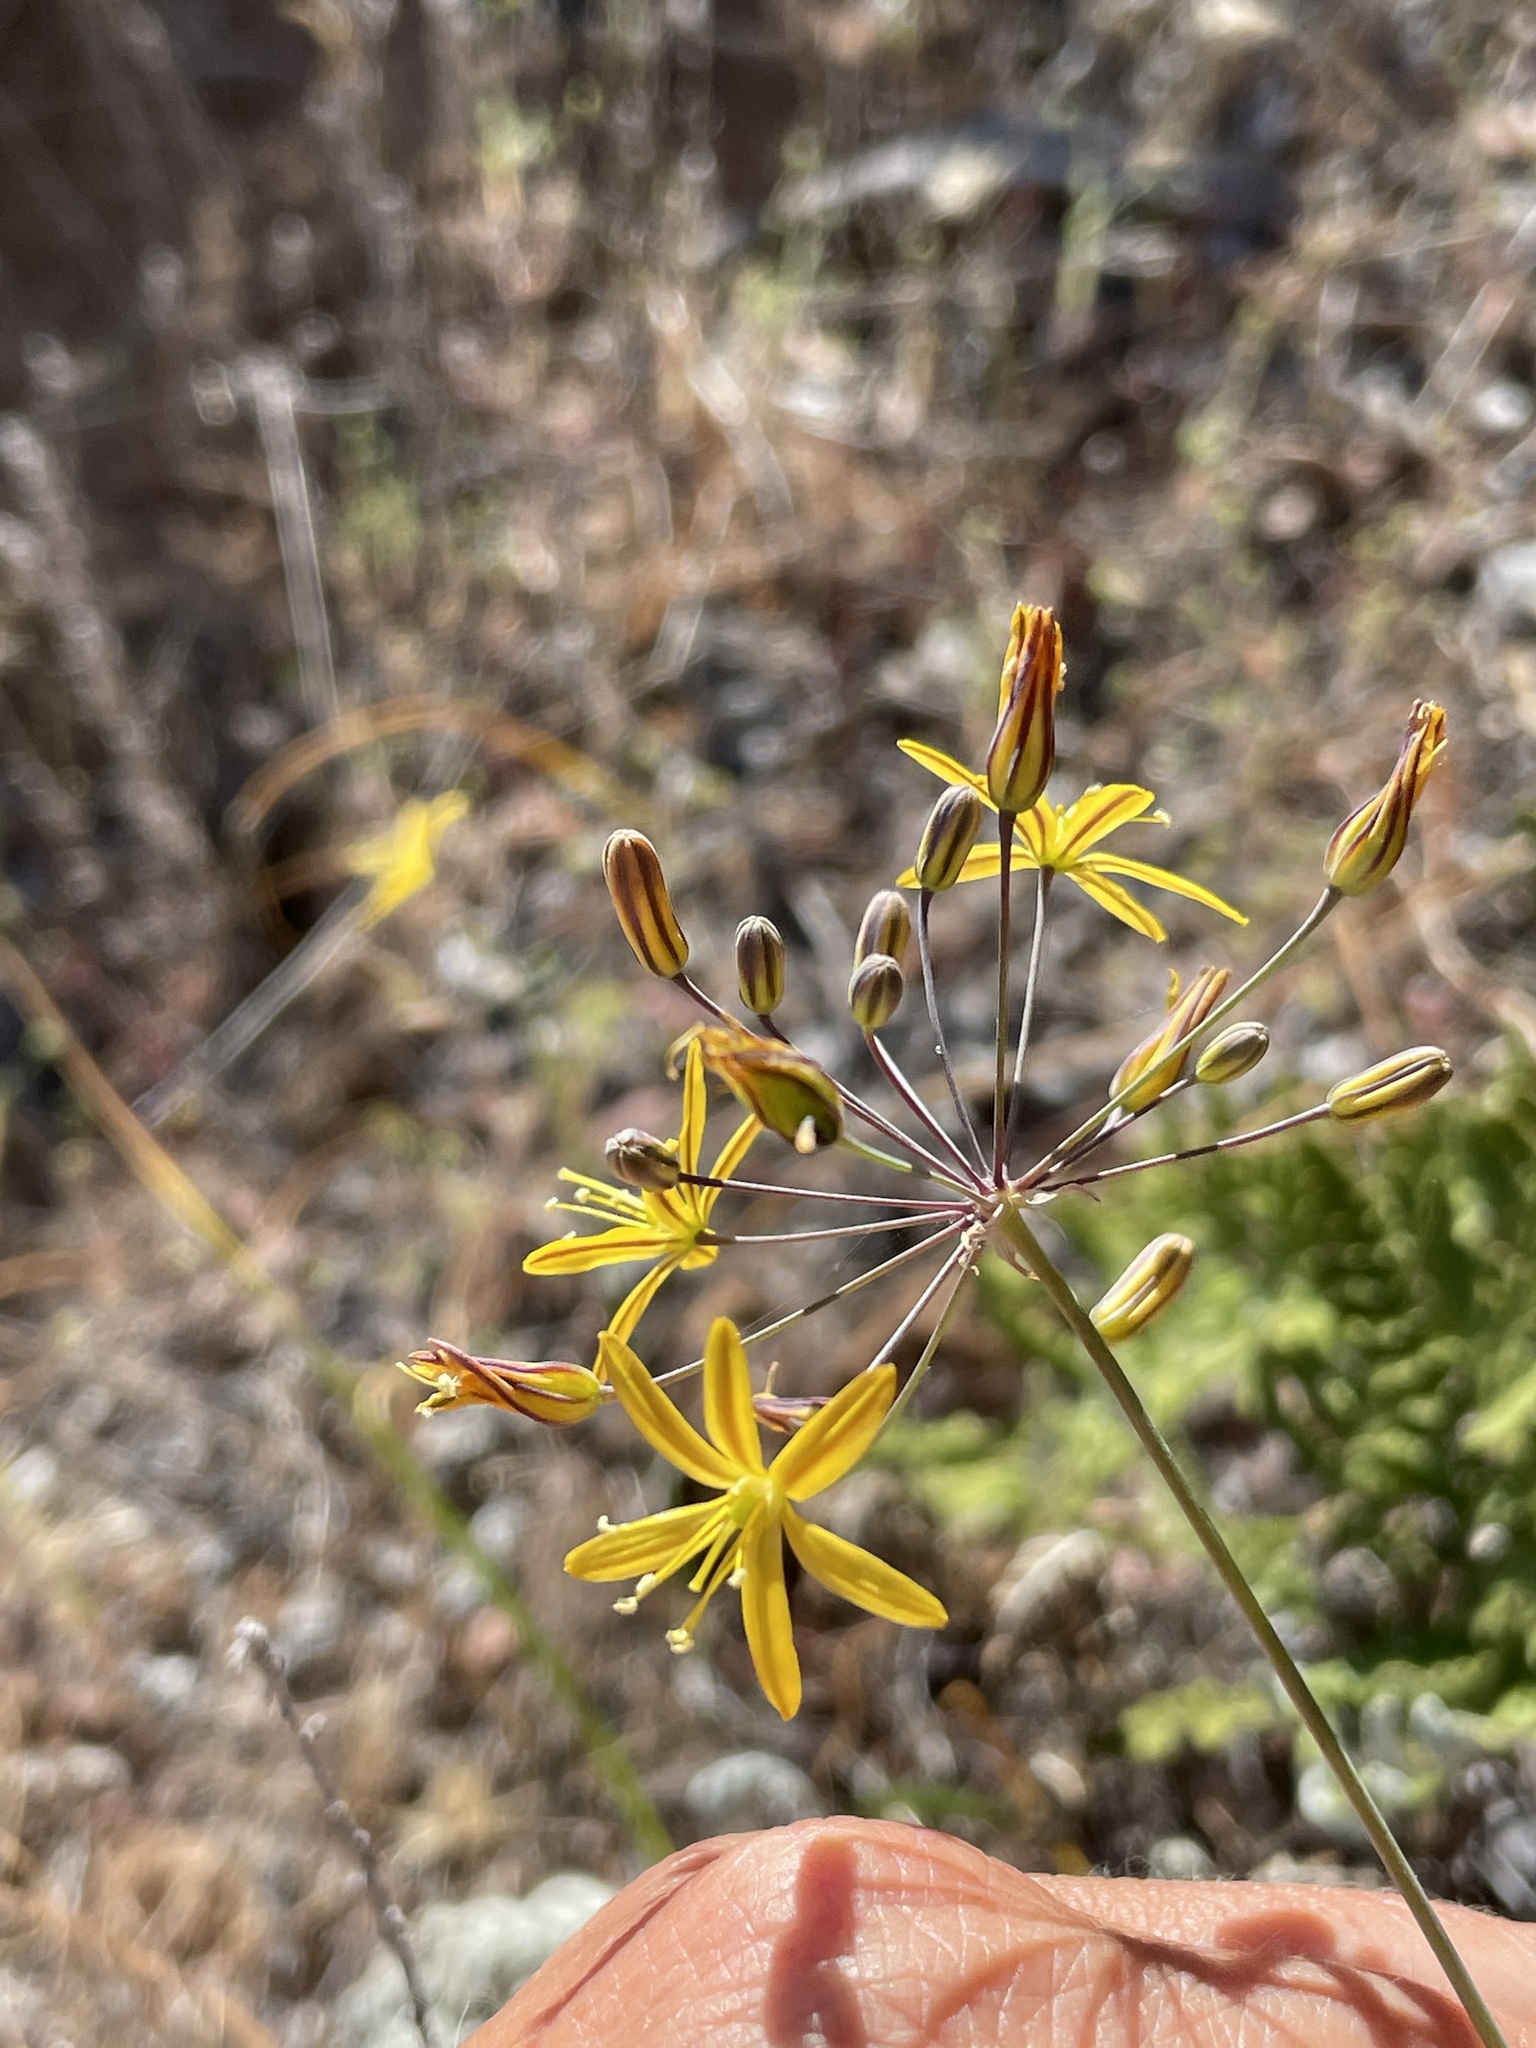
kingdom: Plantae
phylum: Tracheophyta
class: Liliopsida
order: Asparagales
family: Asparagaceae
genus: Bloomeria
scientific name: Bloomeria crocea
